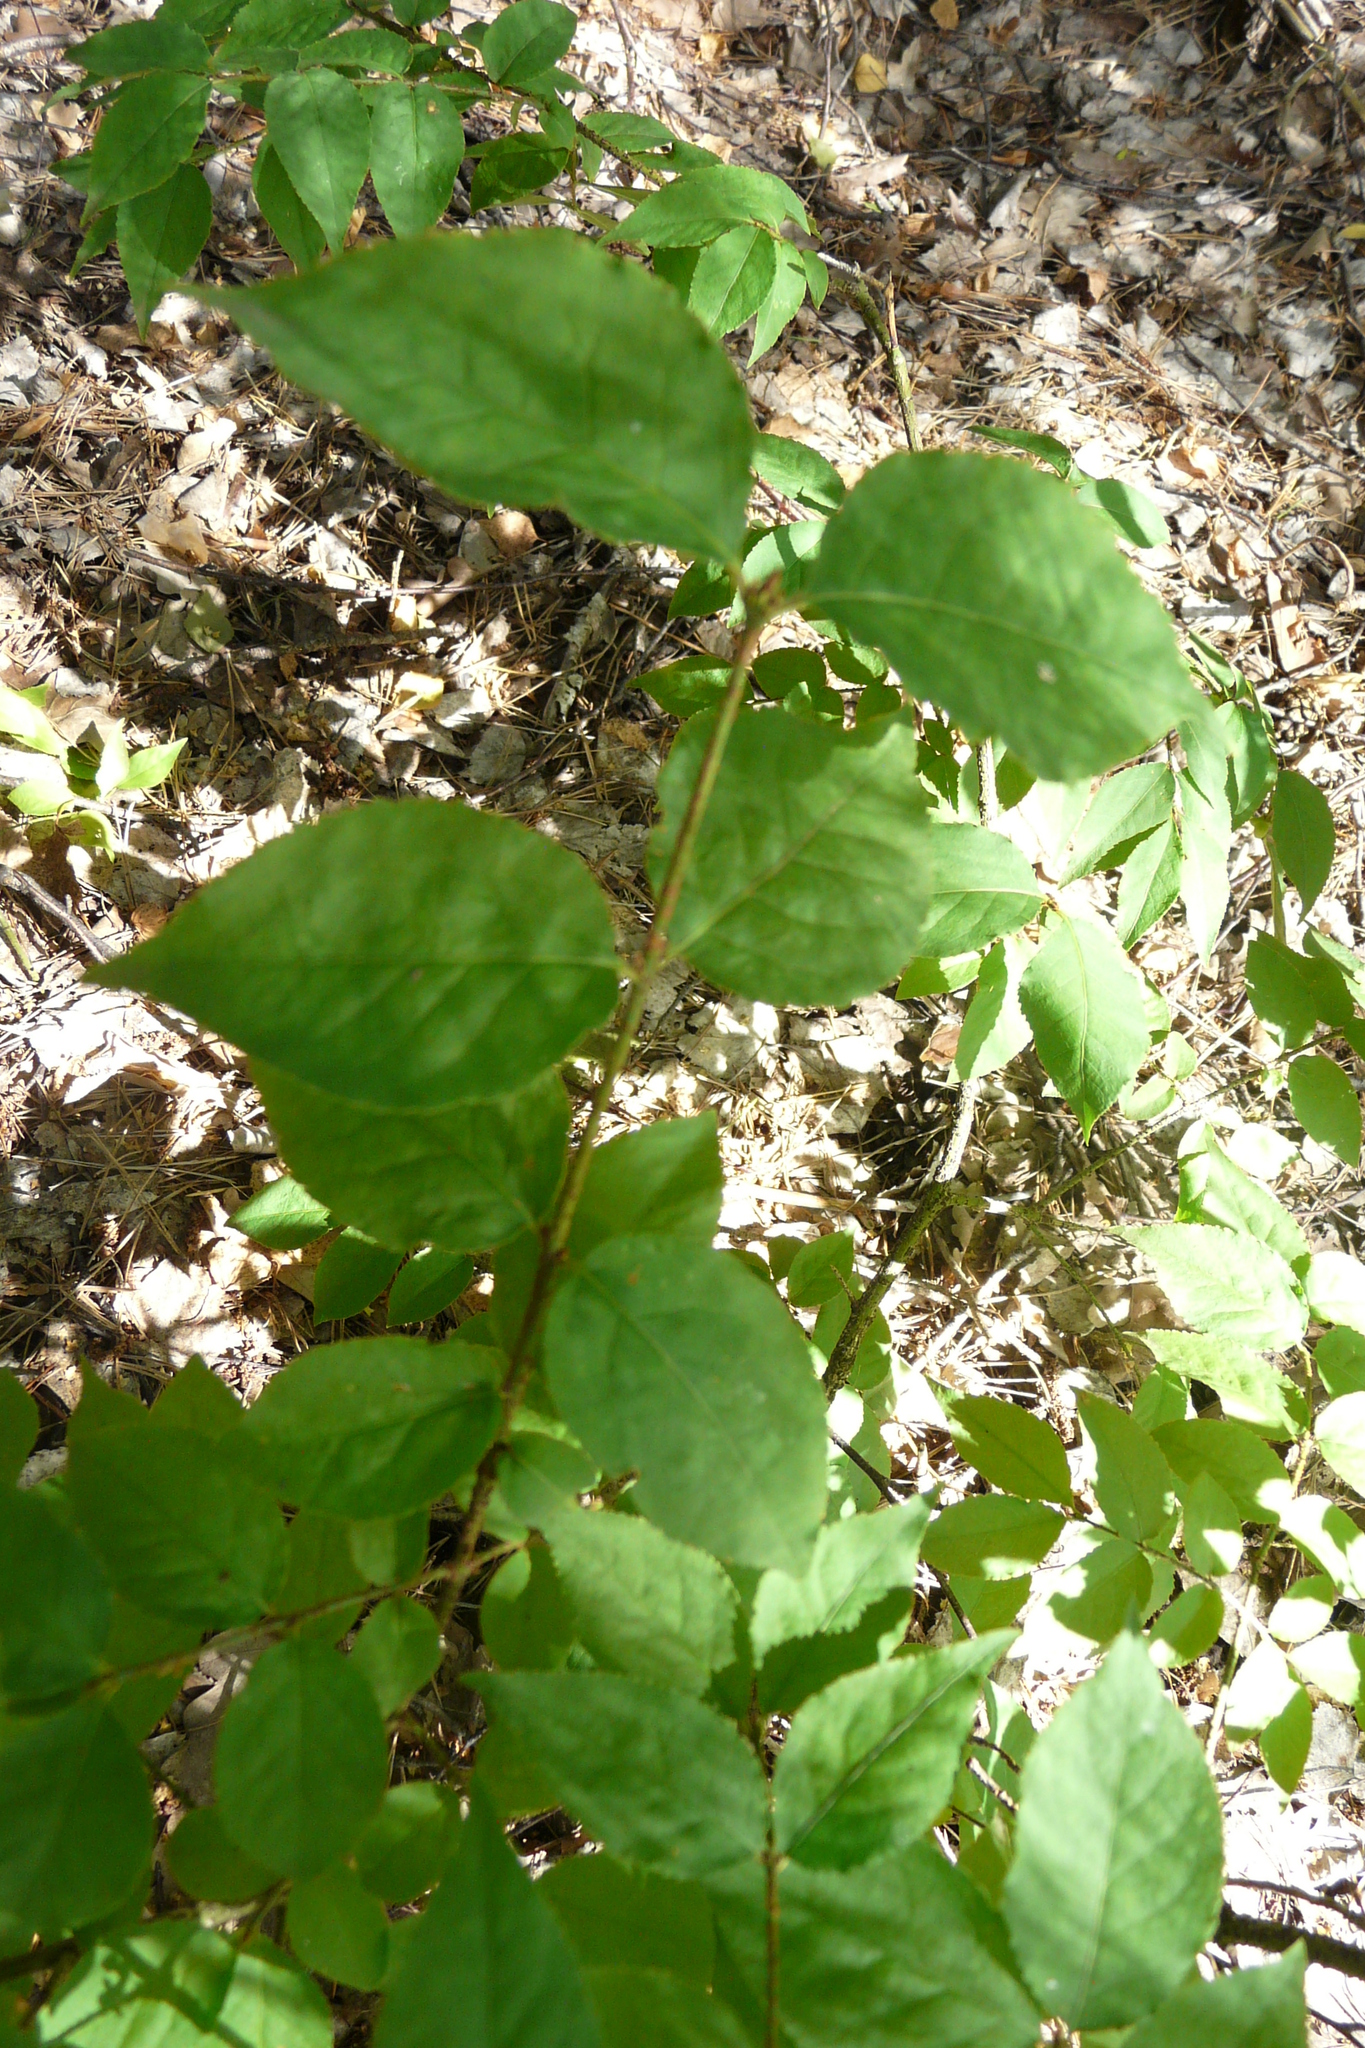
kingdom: Plantae
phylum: Tracheophyta
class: Magnoliopsida
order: Celastrales
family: Celastraceae
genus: Euonymus
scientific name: Euonymus verrucosus
